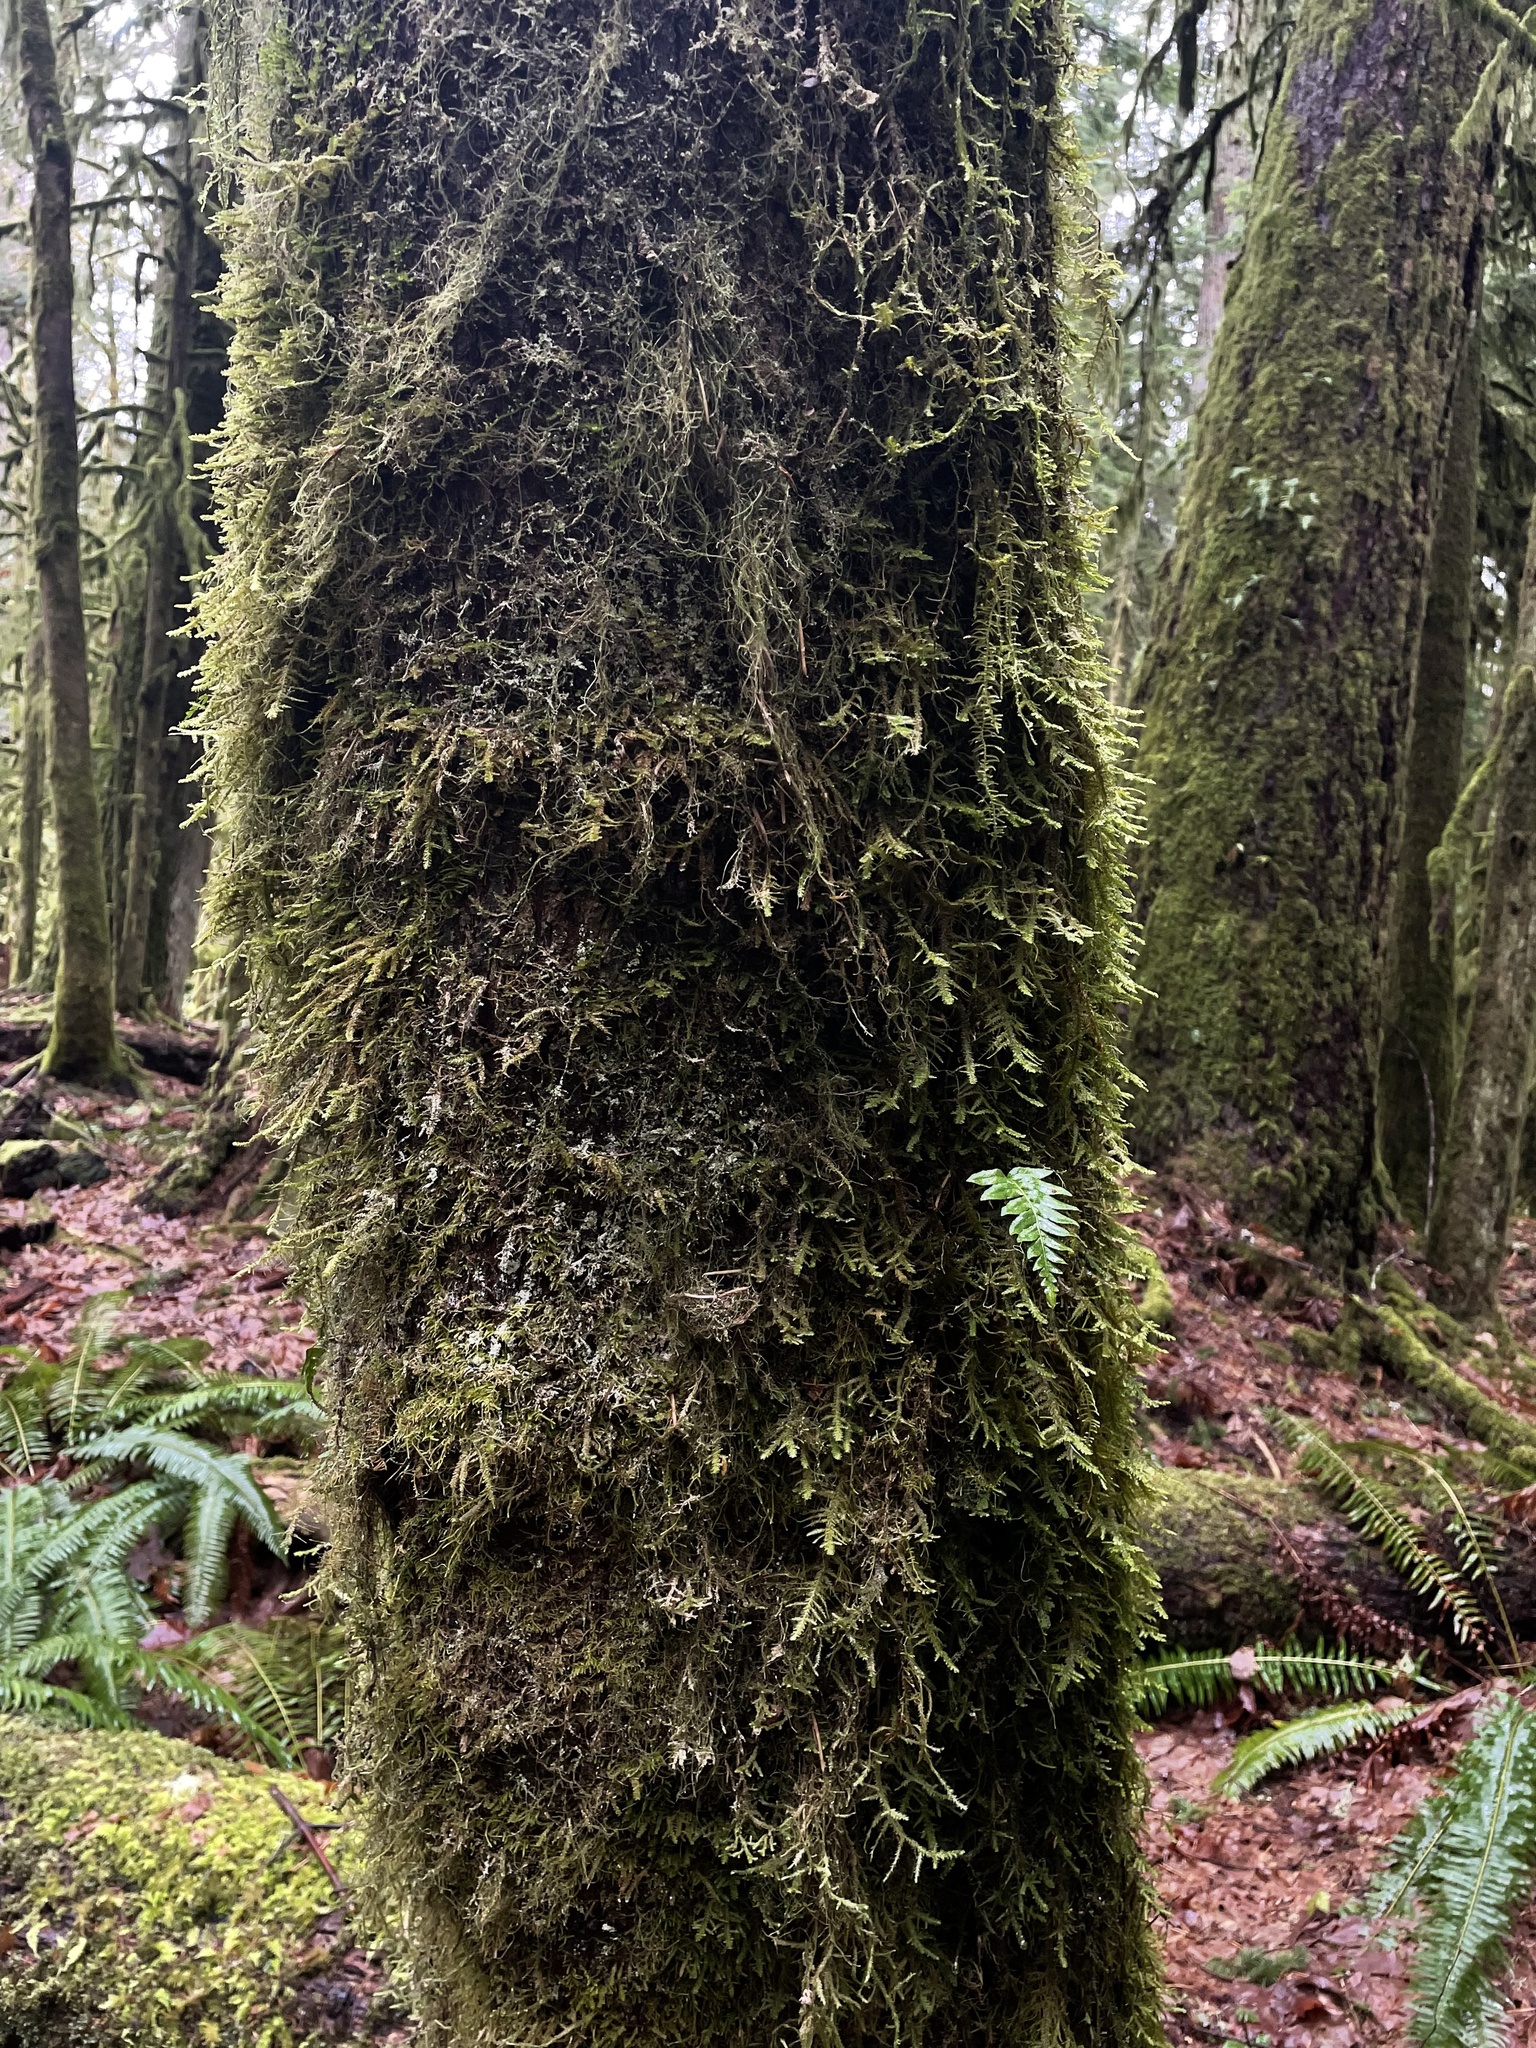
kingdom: Plantae
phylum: Tracheophyta
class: Polypodiopsida
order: Polypodiales
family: Polypodiaceae
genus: Polypodium
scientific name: Polypodium glycyrrhiza
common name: Licorice fern
